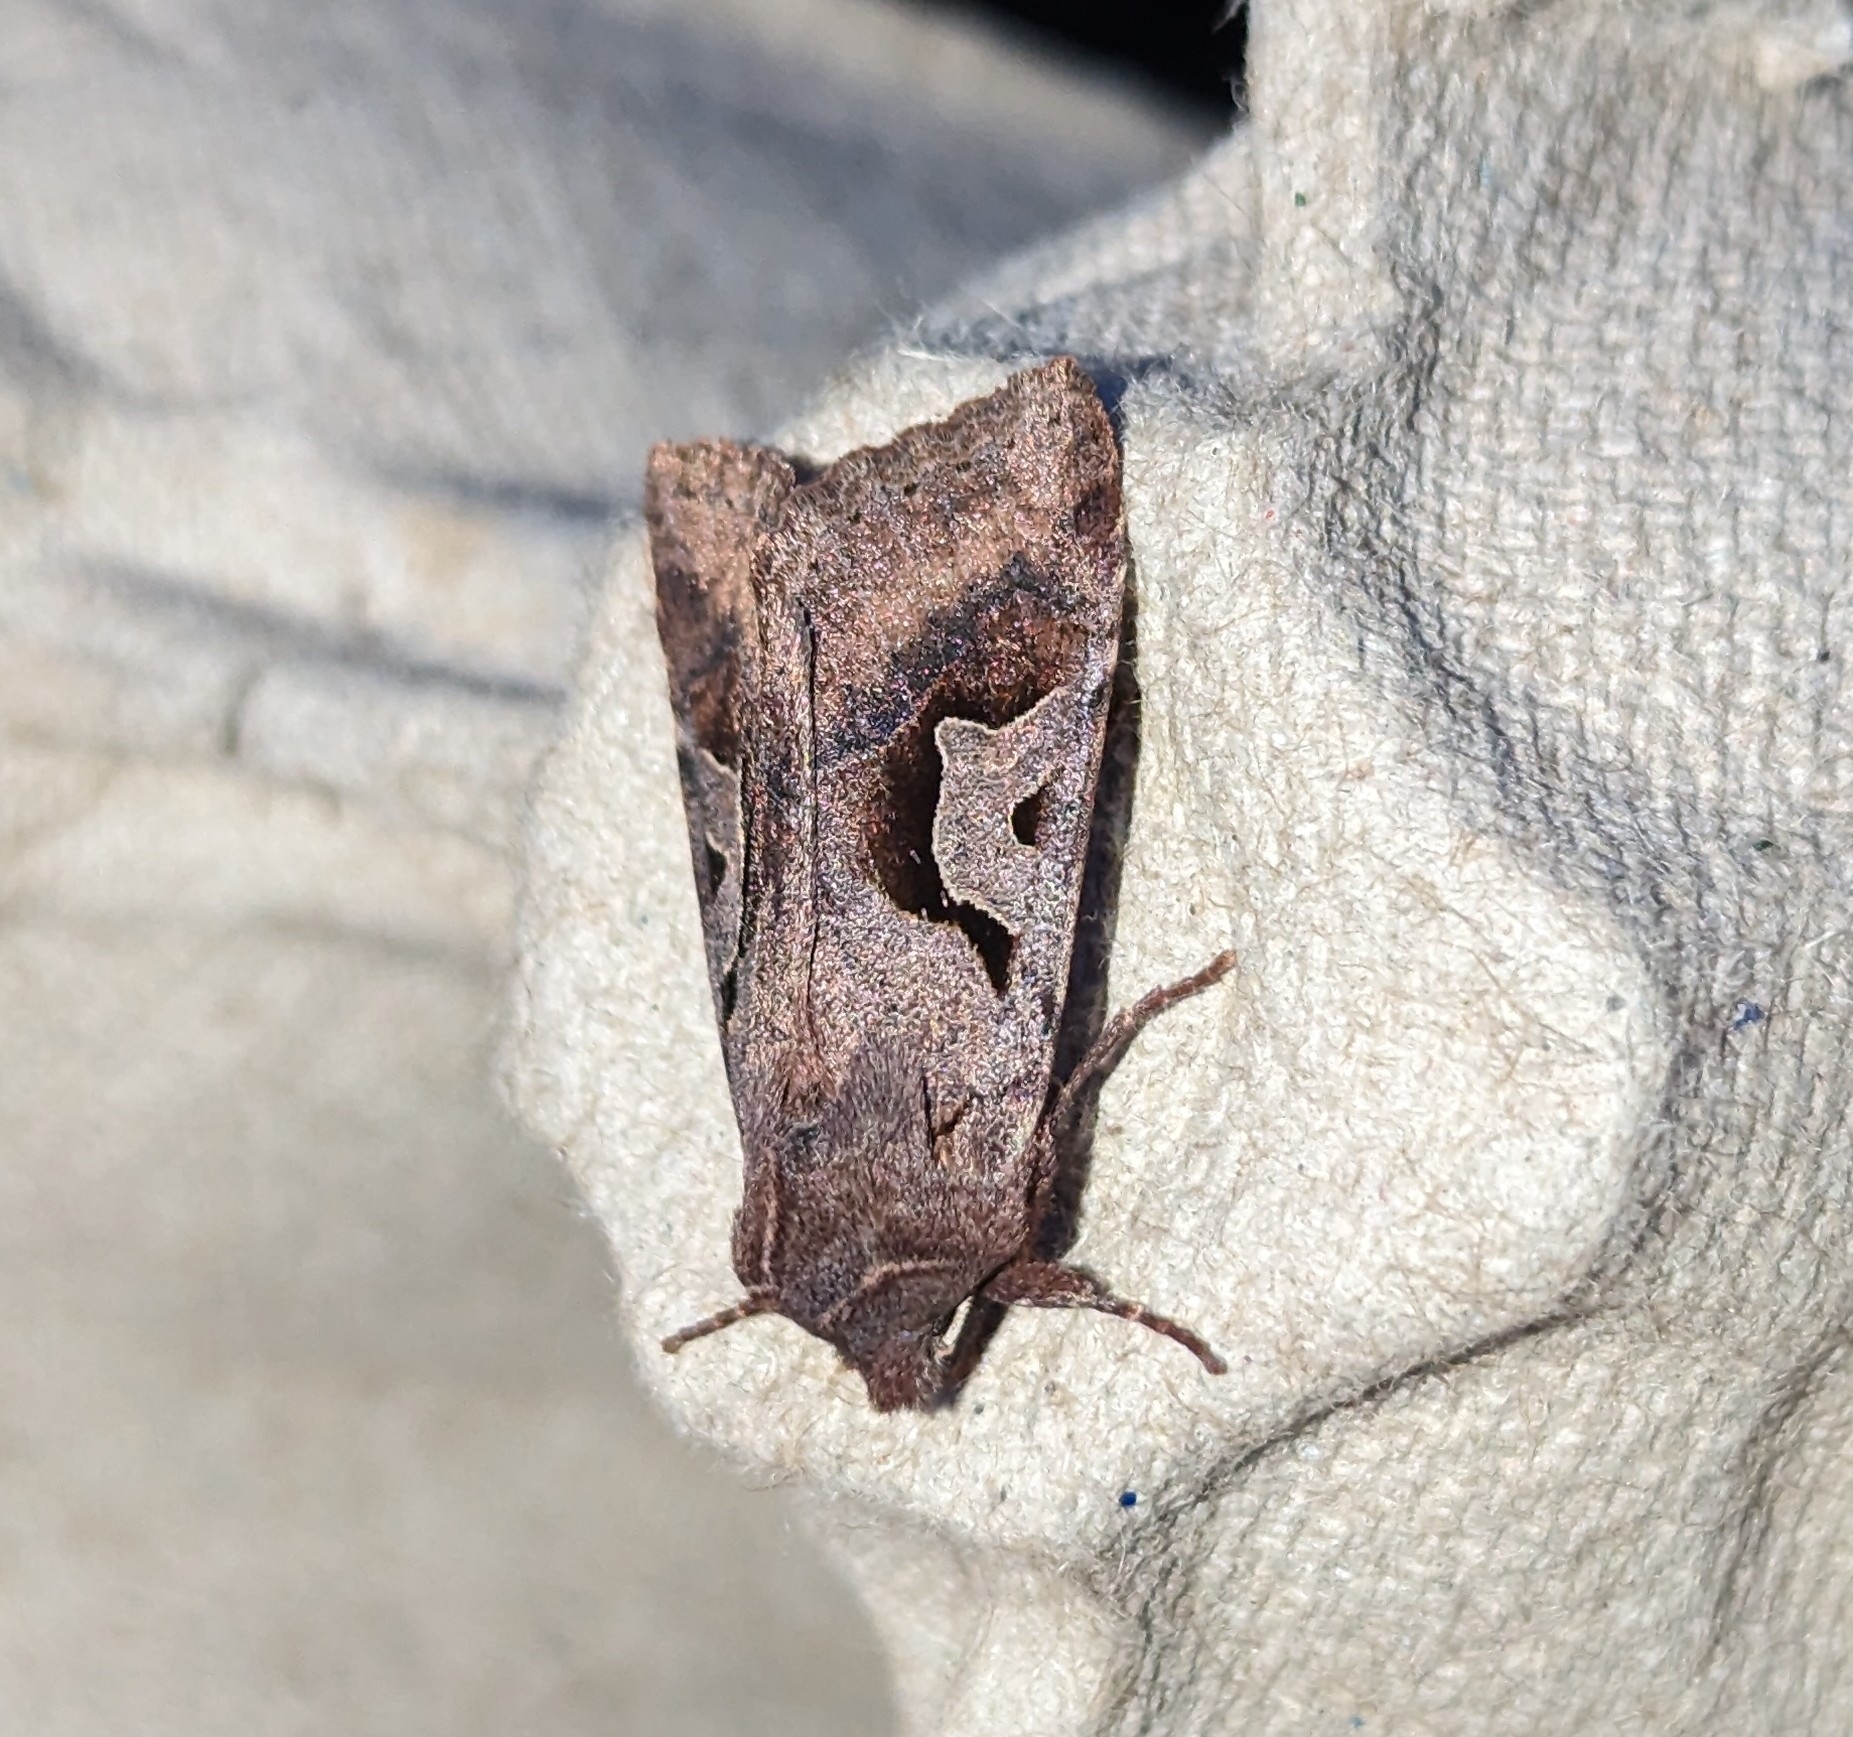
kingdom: Animalia
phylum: Arthropoda
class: Insecta
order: Lepidoptera
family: Noctuidae
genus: Acerra
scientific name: Acerra normalis
